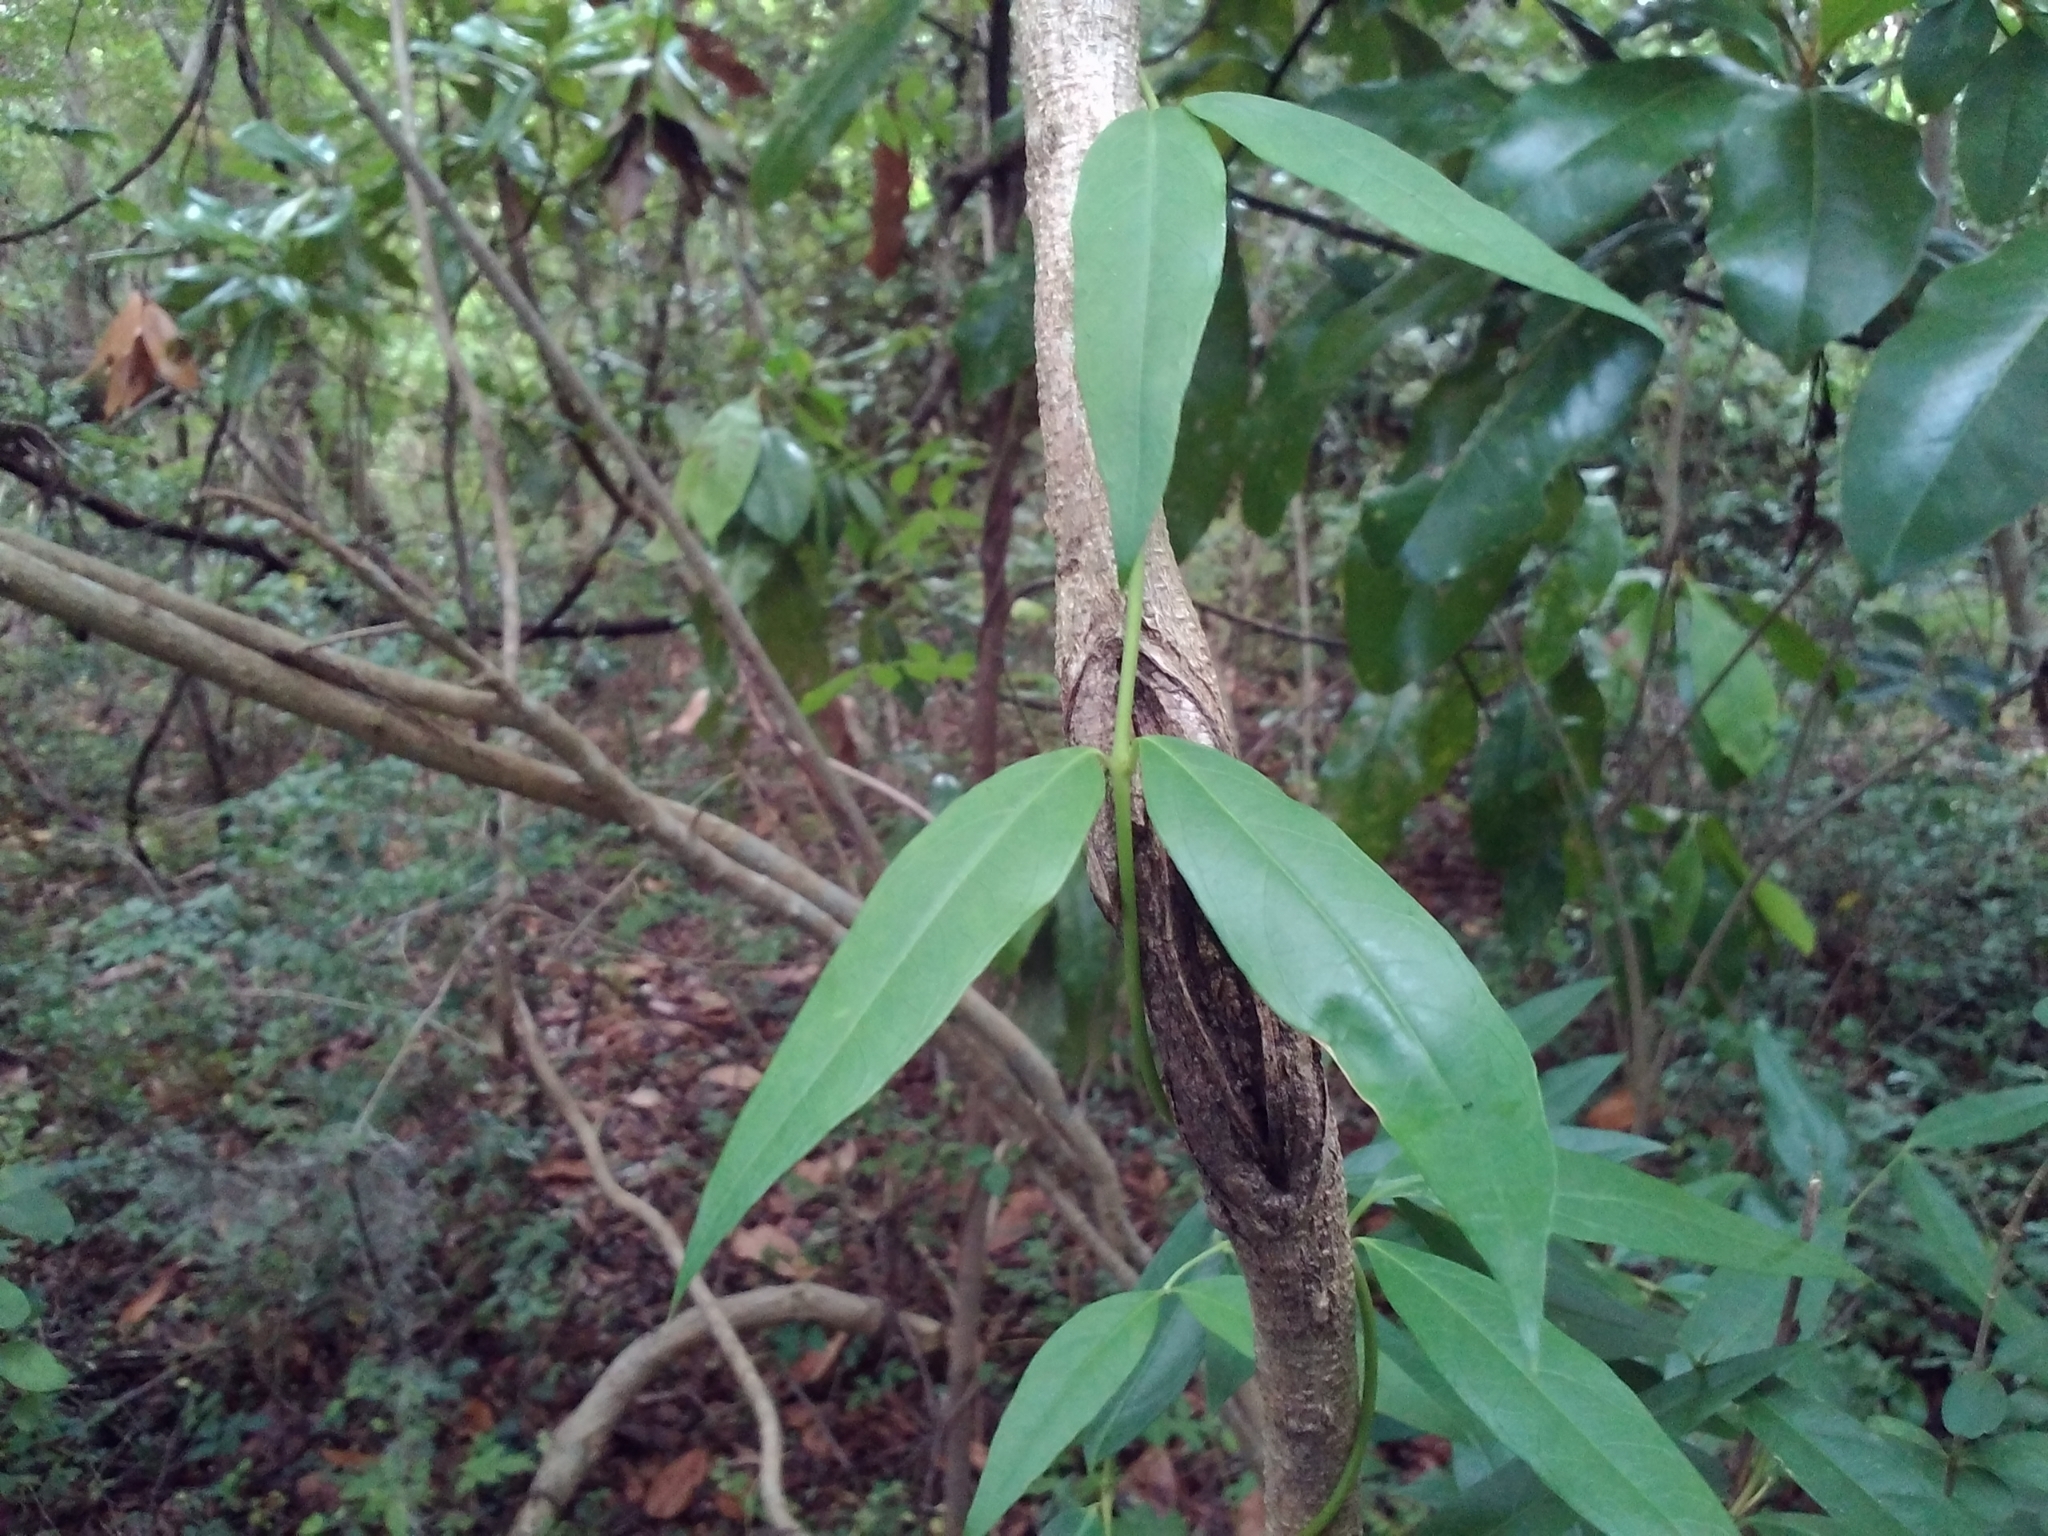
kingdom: Plantae
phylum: Tracheophyta
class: Magnoliopsida
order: Gentianales
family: Gelsemiaceae
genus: Gelsemium
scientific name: Gelsemium sempervirens
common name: Carolina-jasmine
